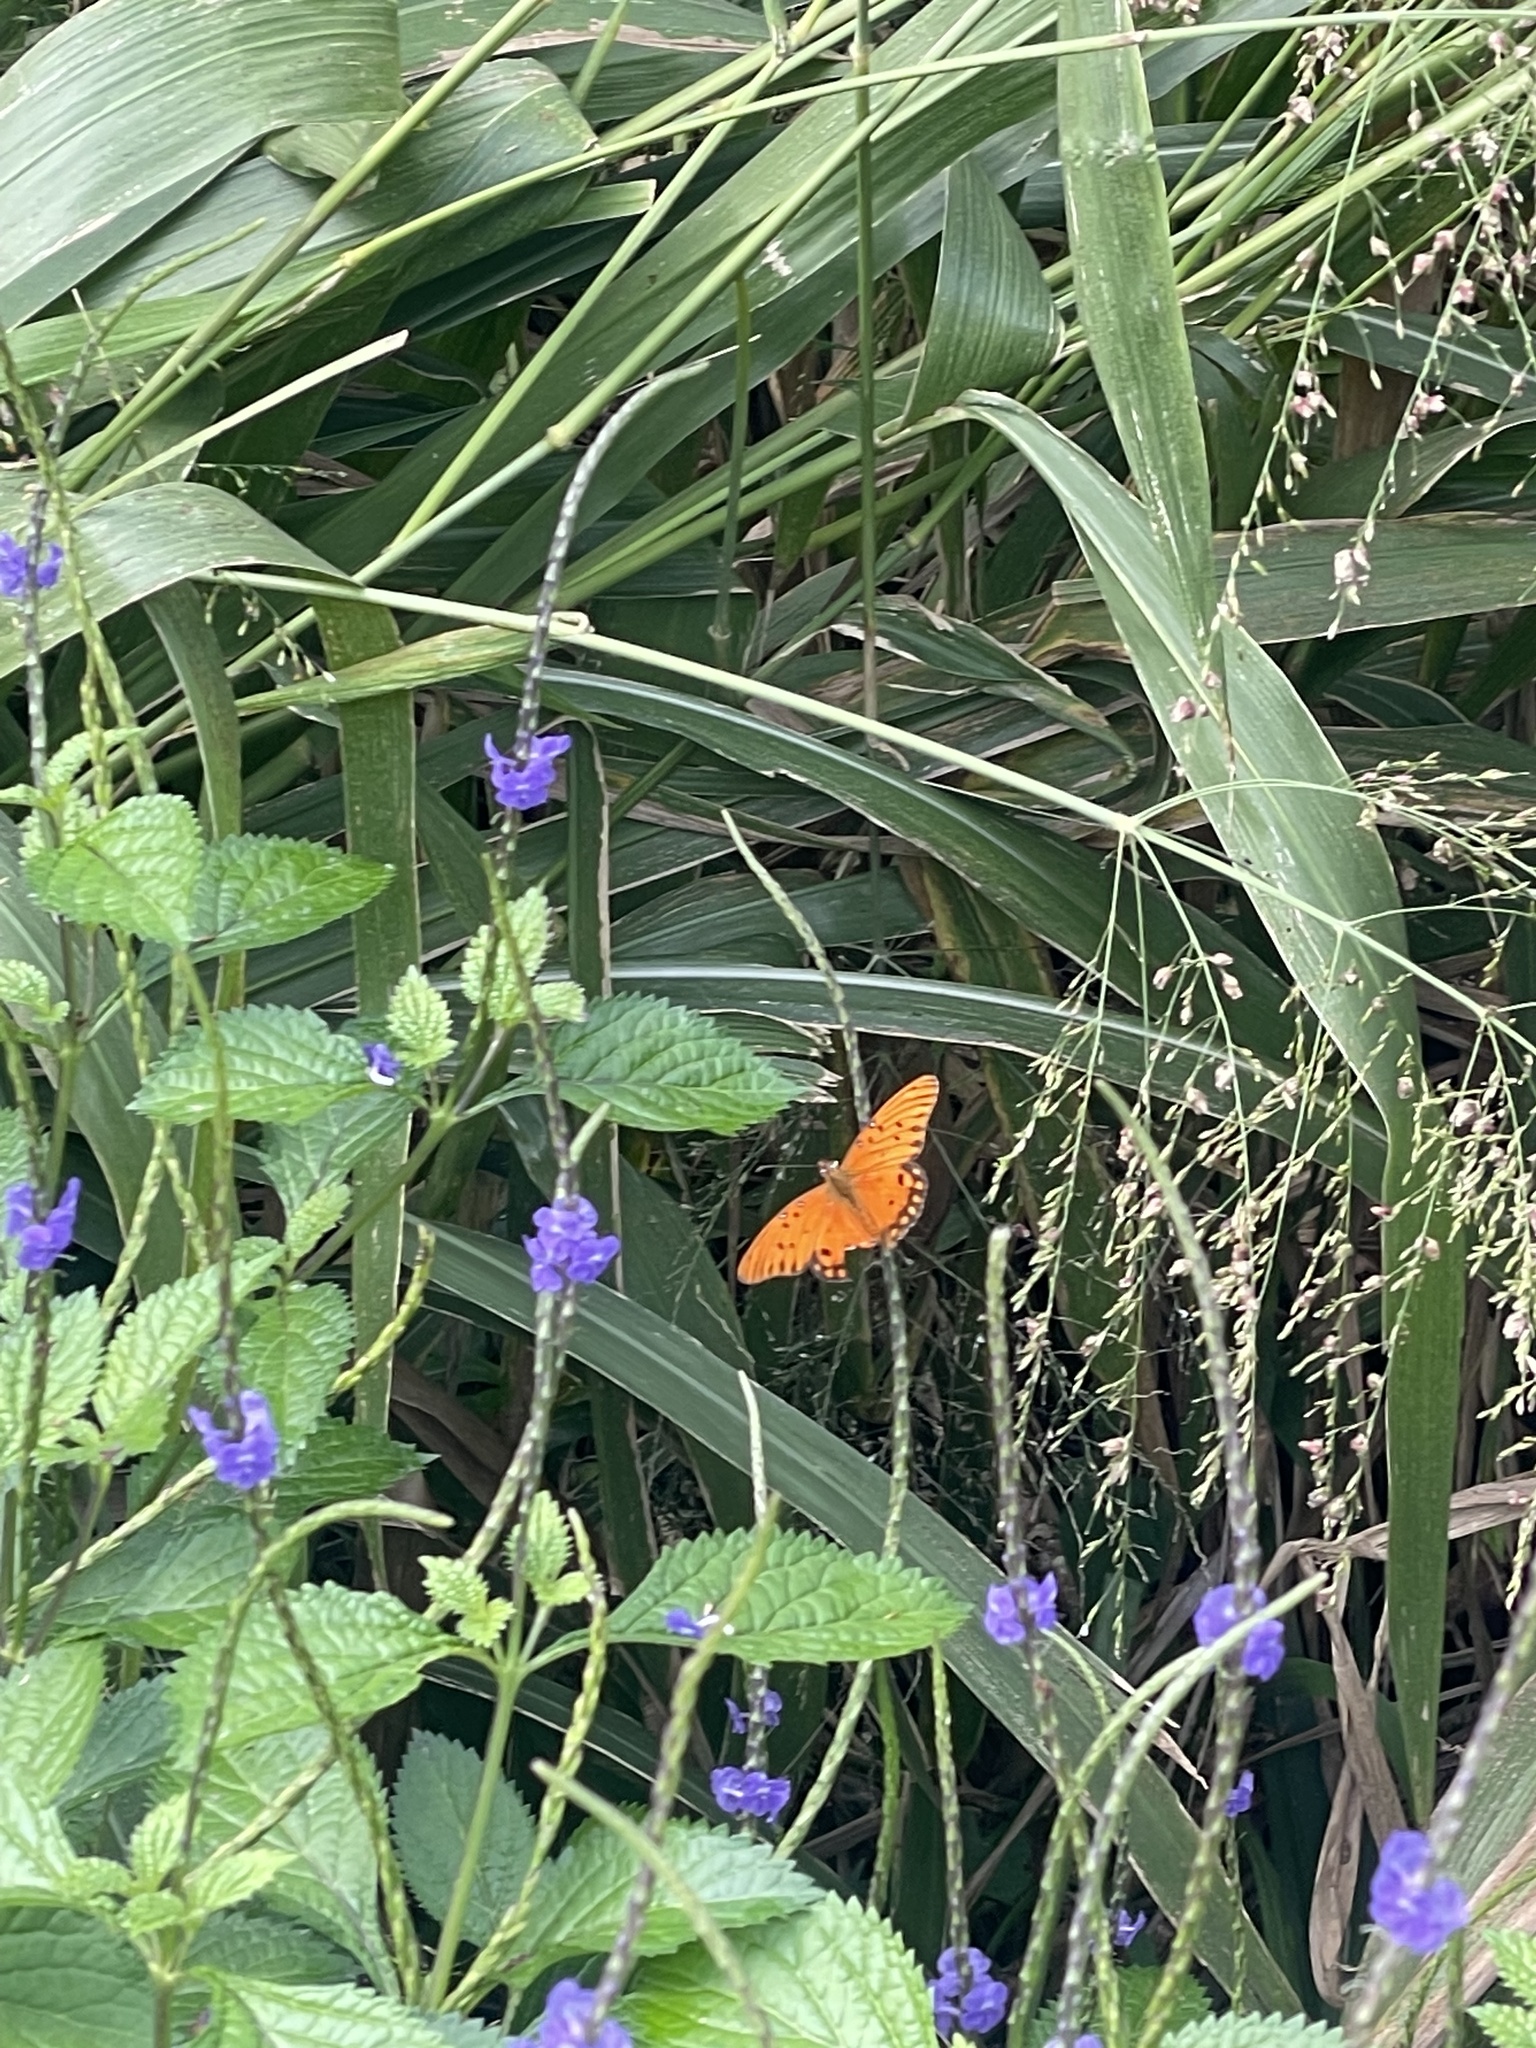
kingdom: Animalia
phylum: Arthropoda
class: Insecta
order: Lepidoptera
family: Nymphalidae
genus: Dione
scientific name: Dione vanillae
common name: Gulf fritillary
